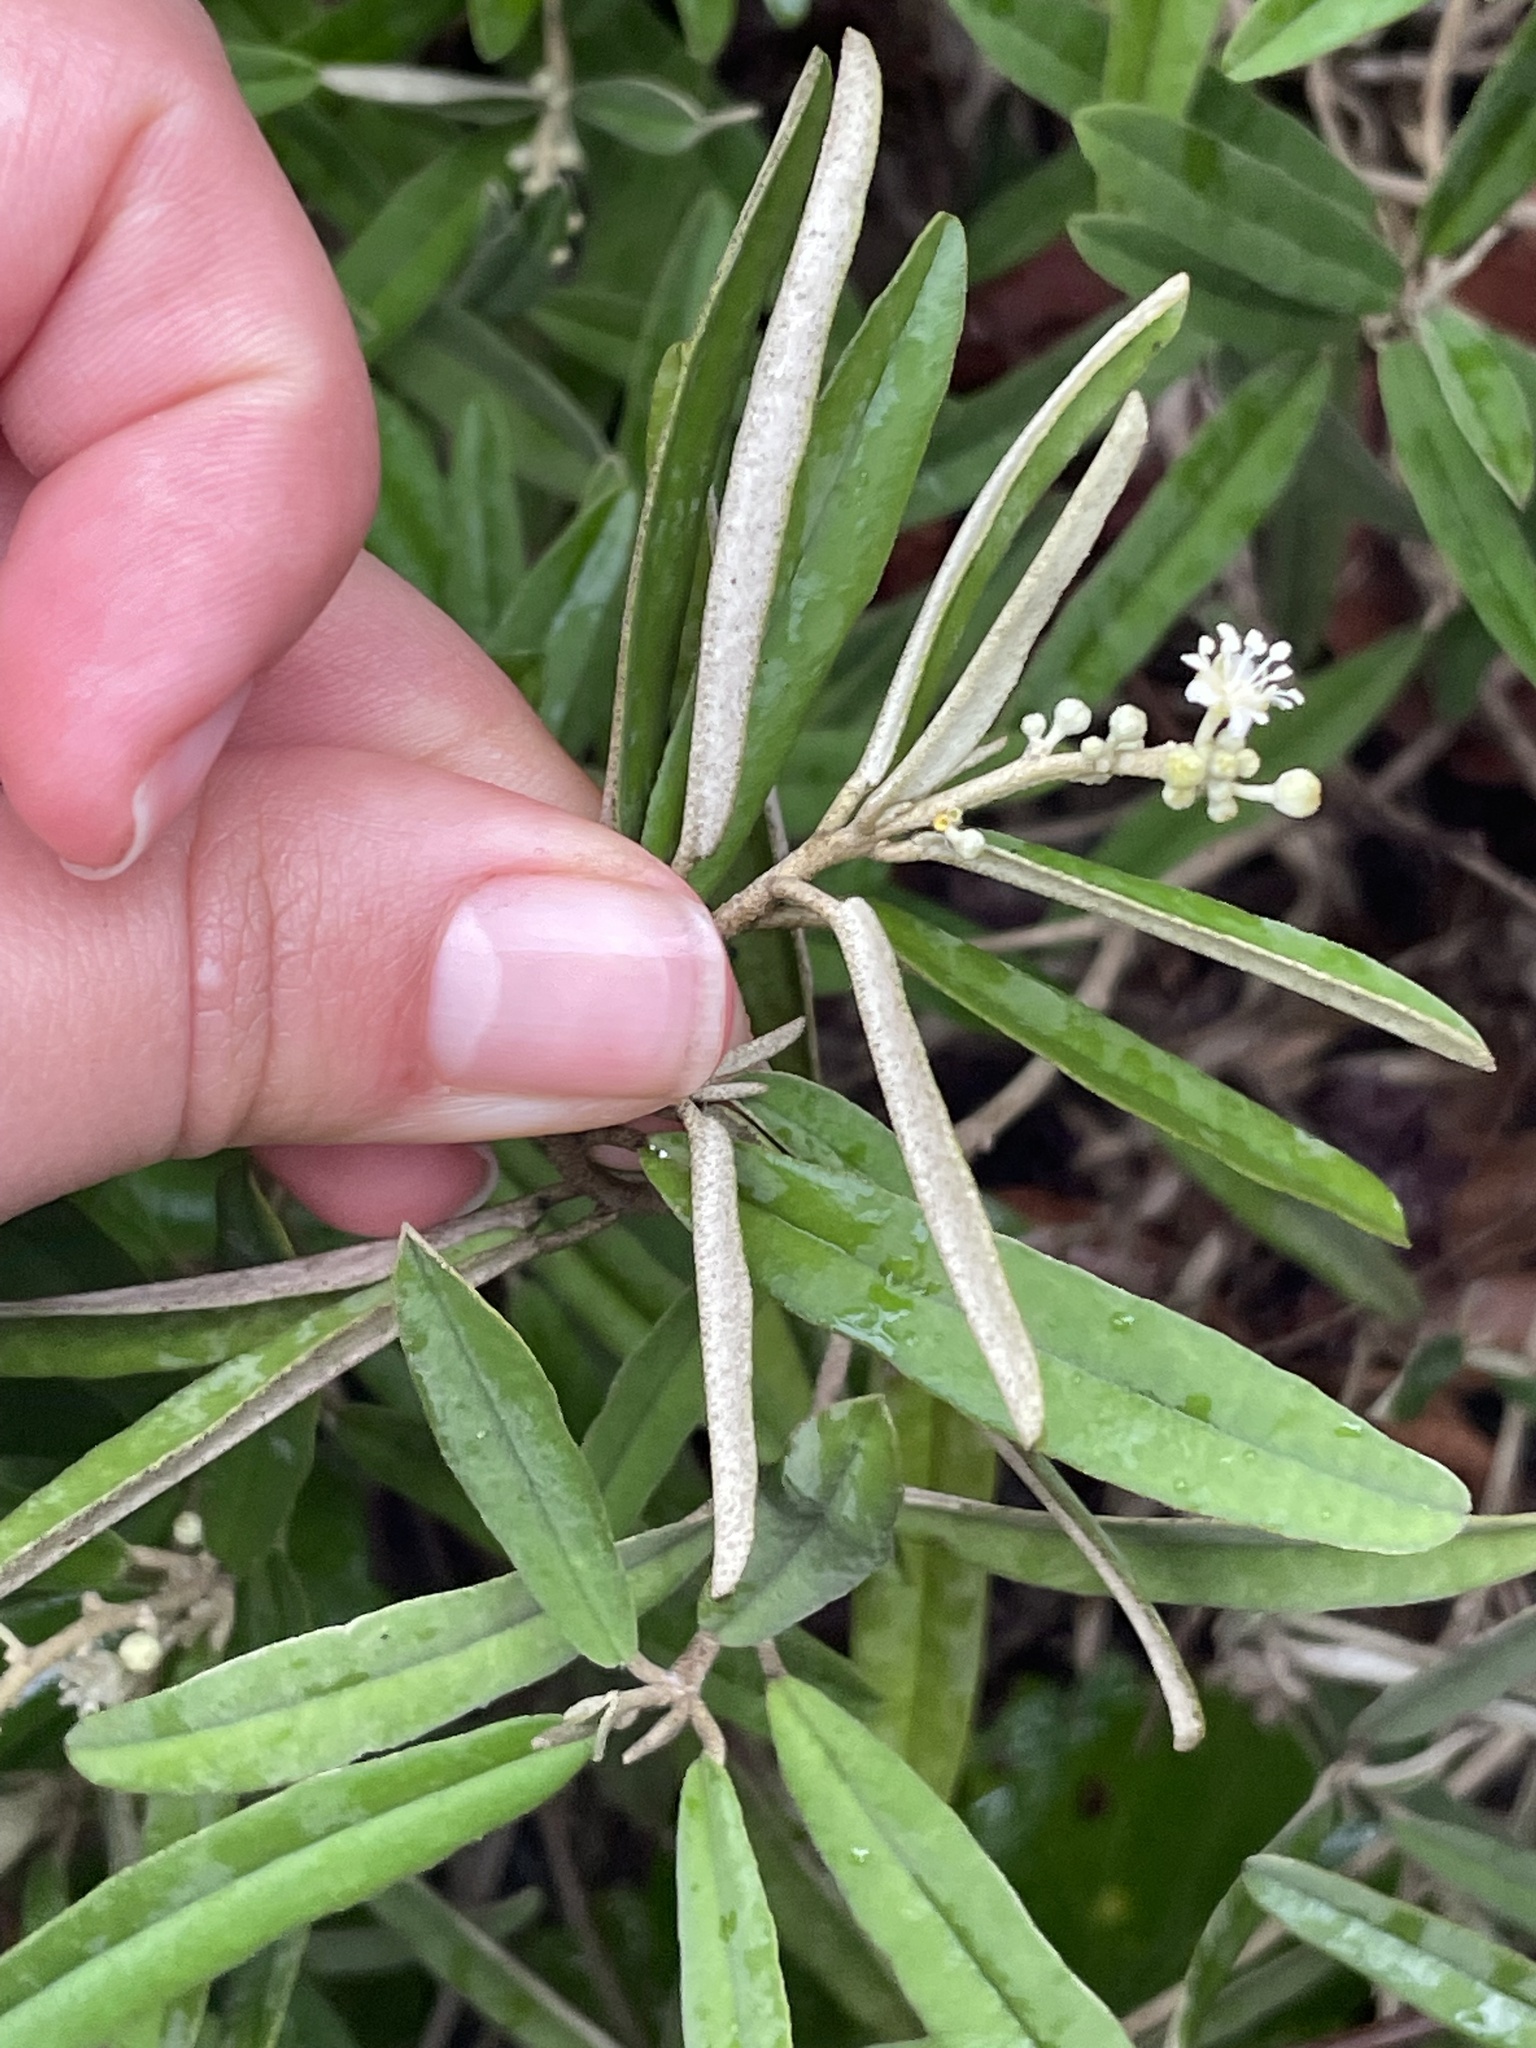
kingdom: Plantae
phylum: Tracheophyta
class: Magnoliopsida
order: Malpighiales
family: Euphorbiaceae
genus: Croton
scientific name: Croton linearis
